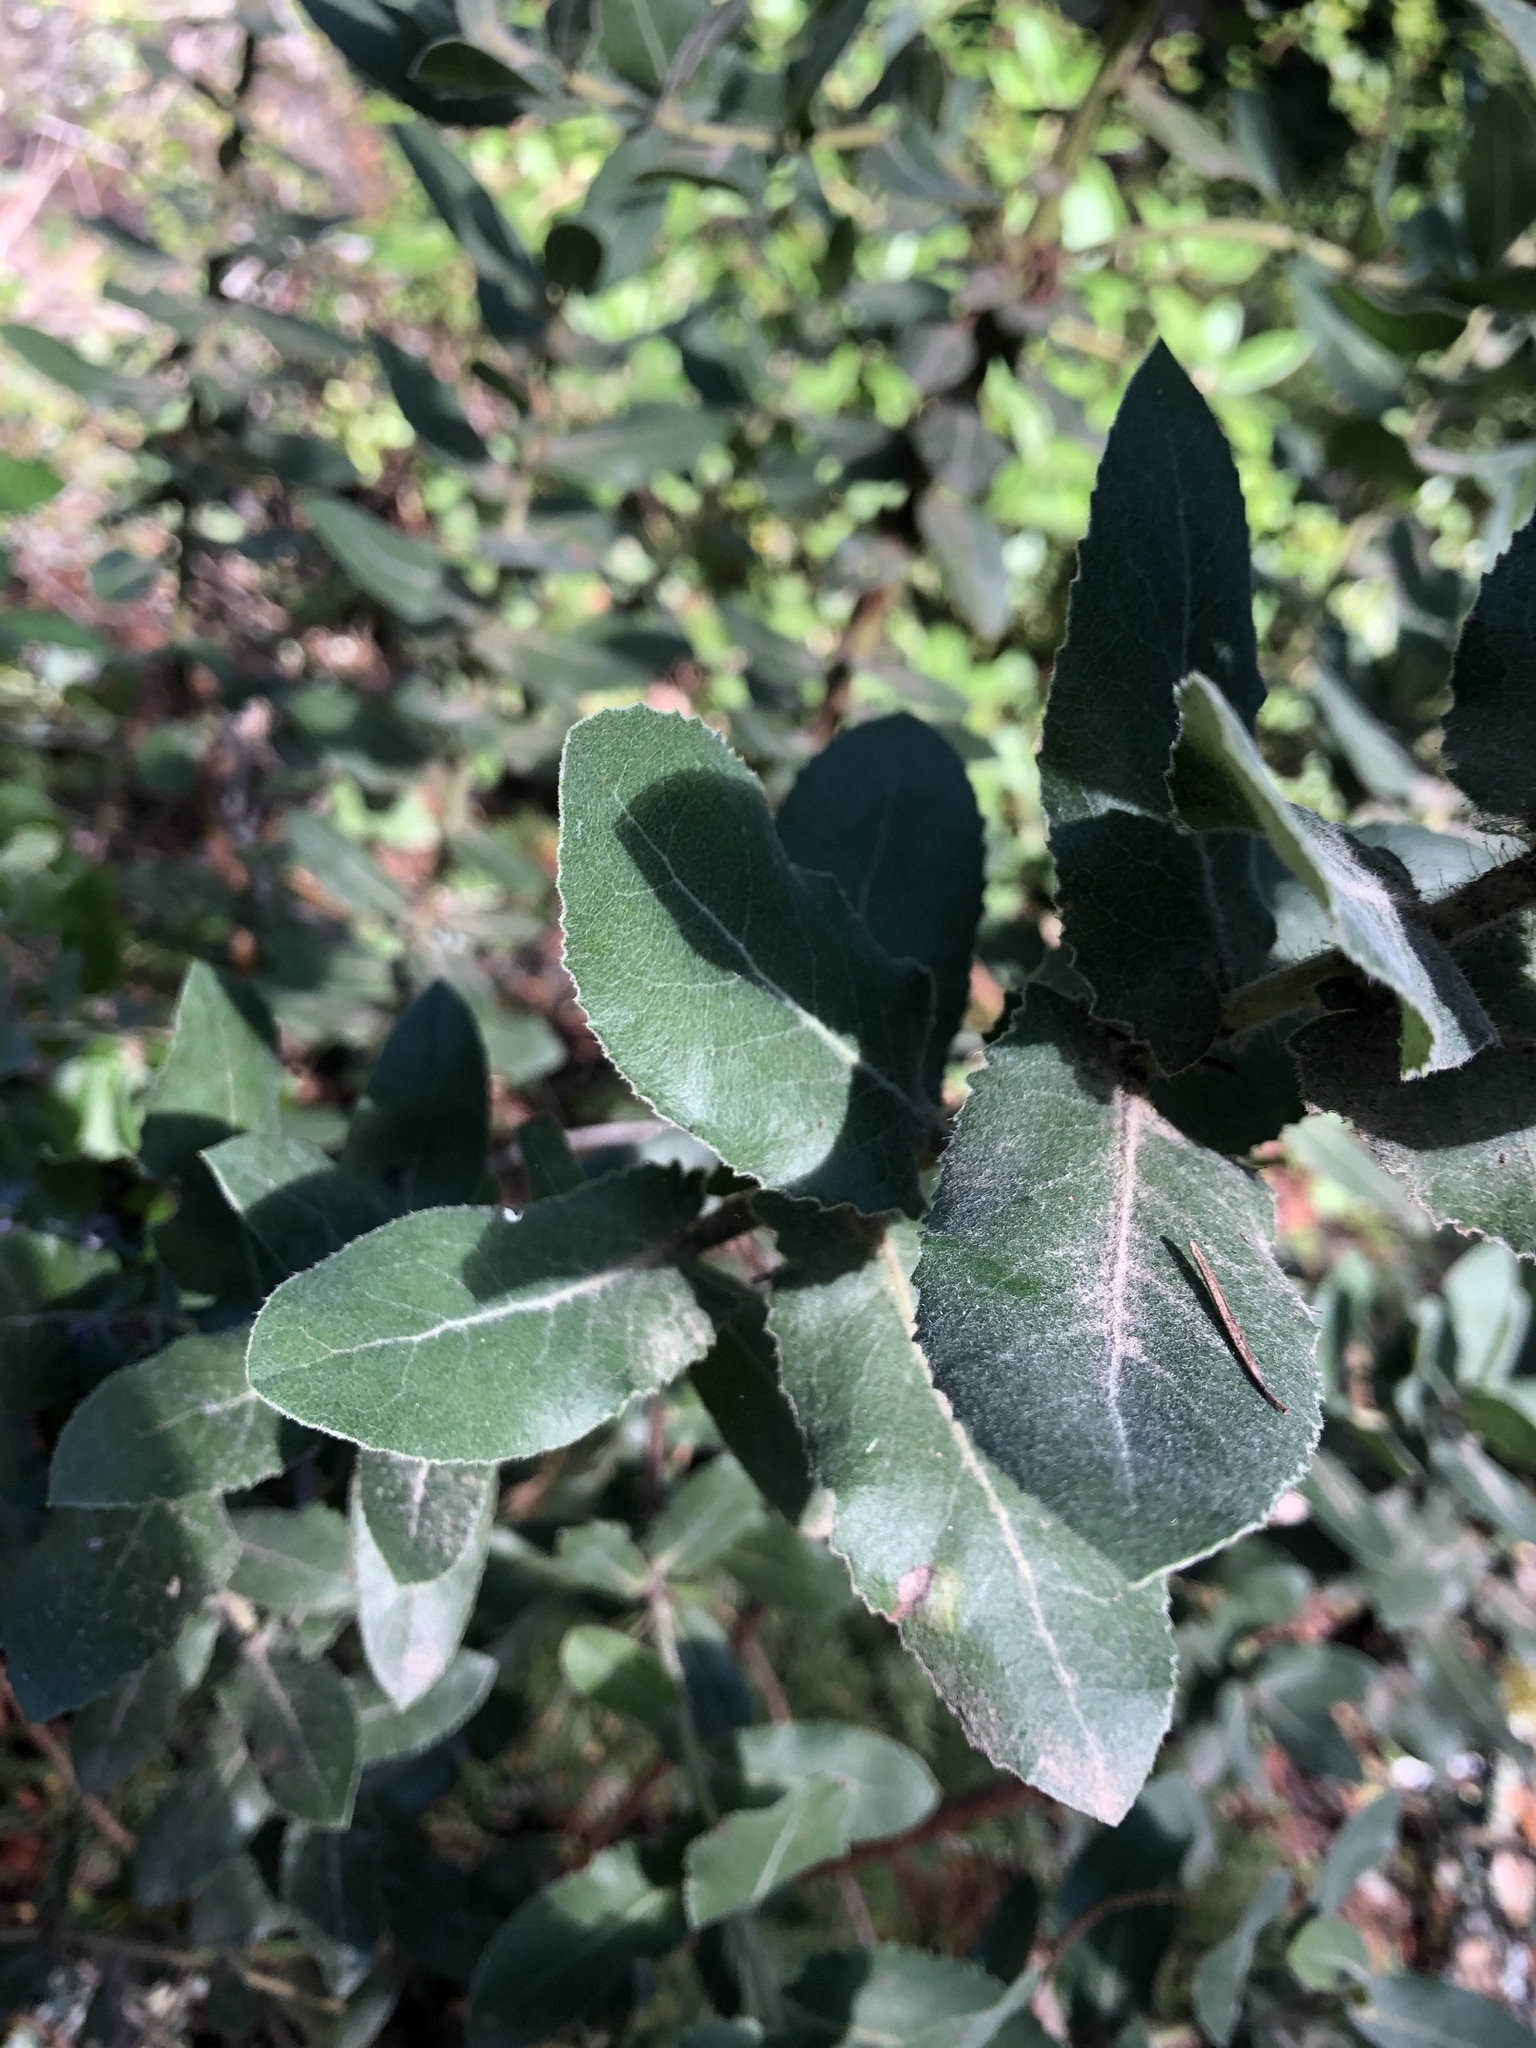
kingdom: Plantae
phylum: Tracheophyta
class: Magnoliopsida
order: Ericales
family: Ericaceae
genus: Arctostaphylos
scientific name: Arctostaphylos regismontana
